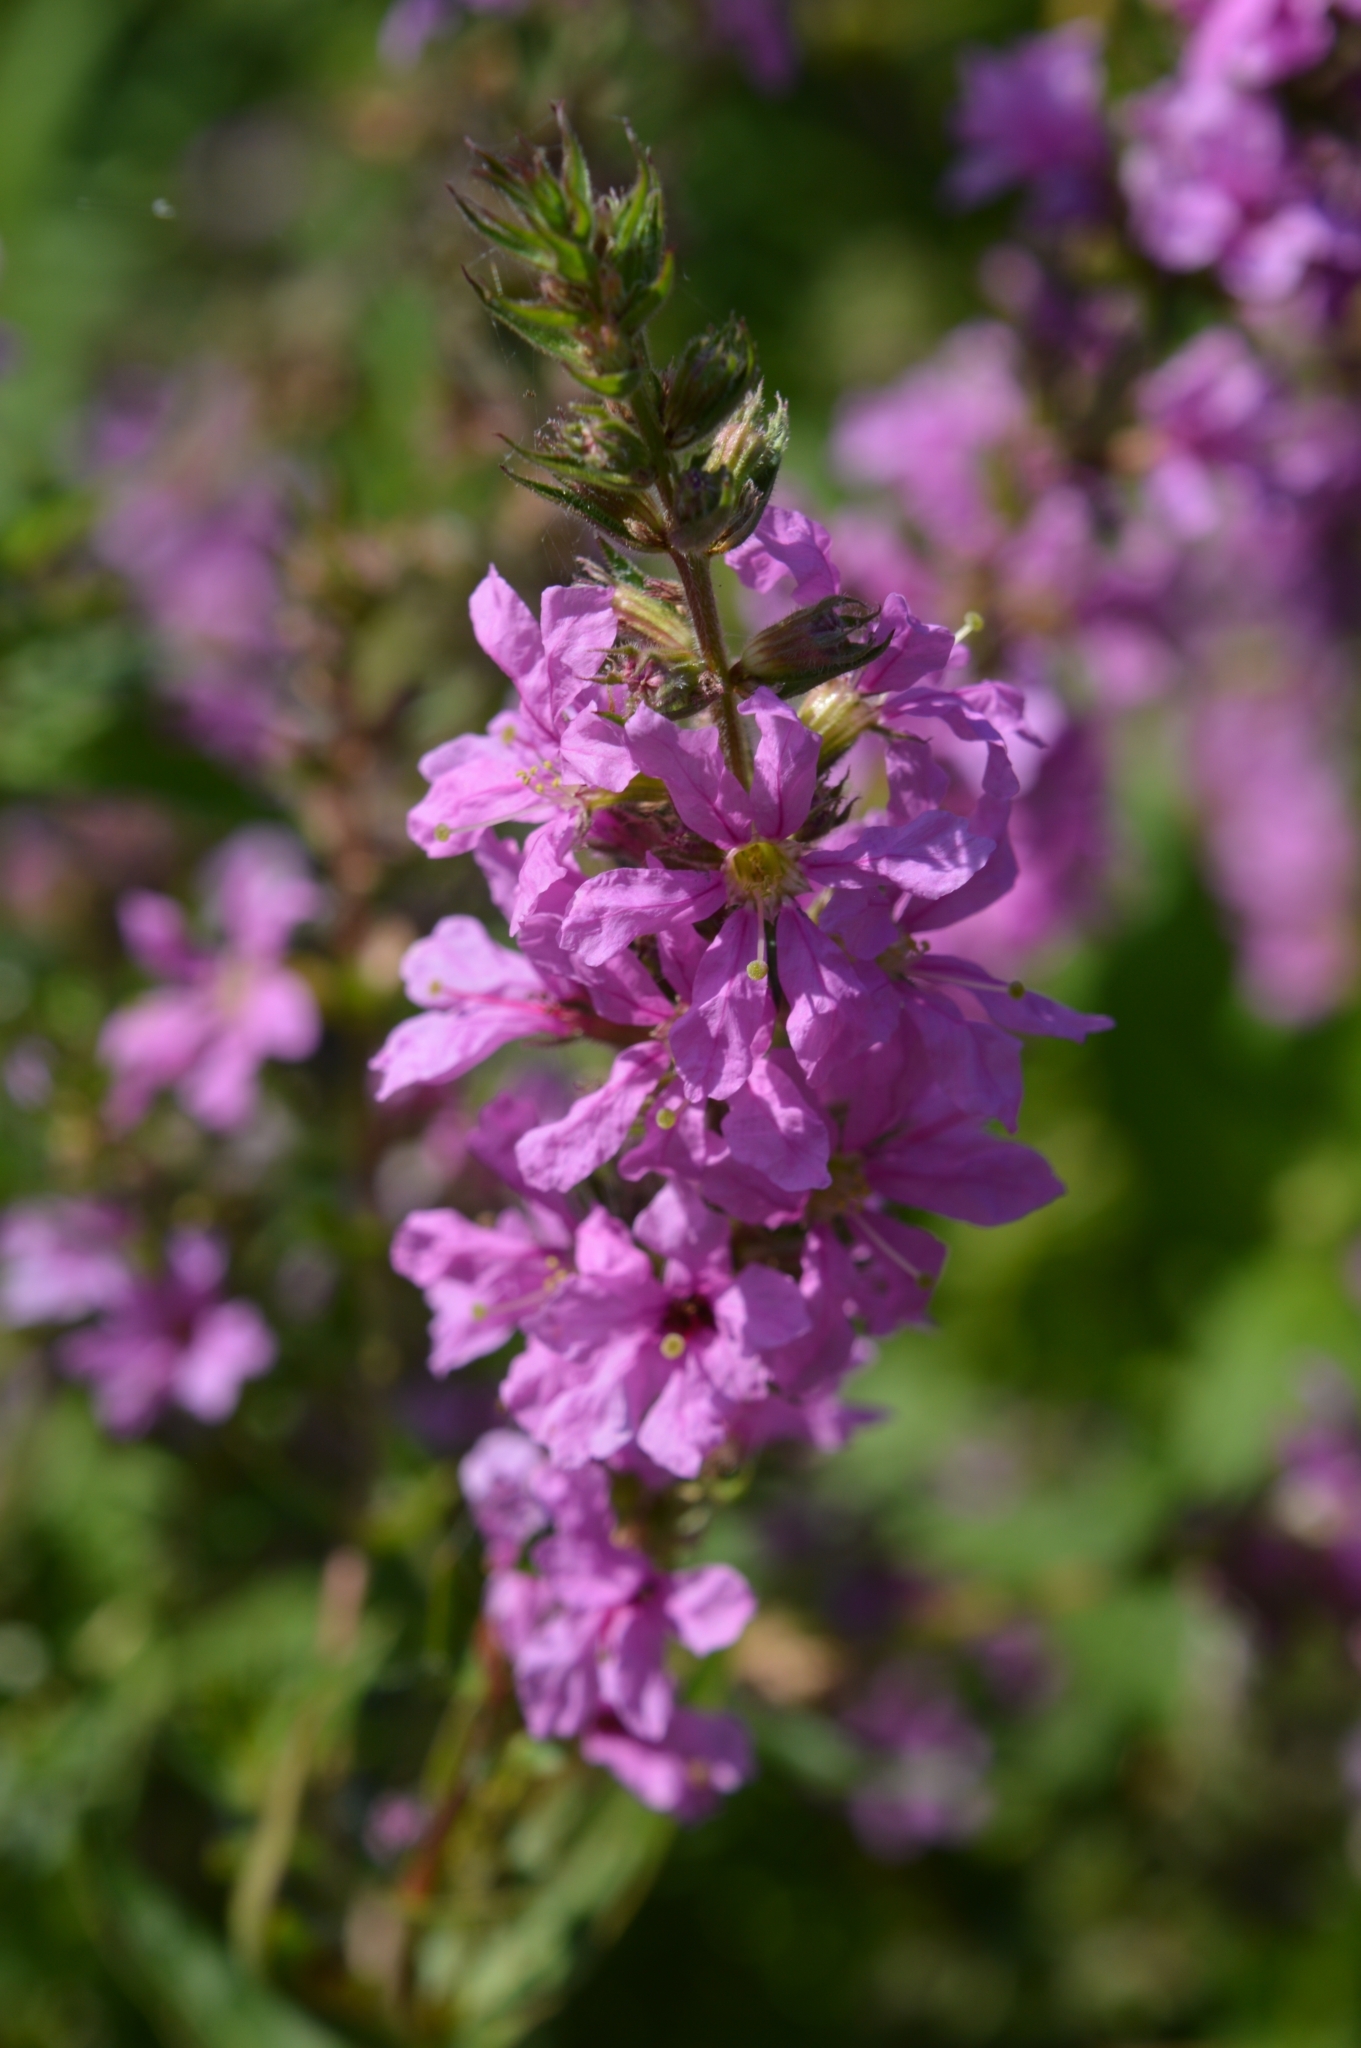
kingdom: Plantae
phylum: Tracheophyta
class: Magnoliopsida
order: Myrtales
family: Lythraceae
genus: Lythrum
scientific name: Lythrum salicaria
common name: Purple loosestrife
